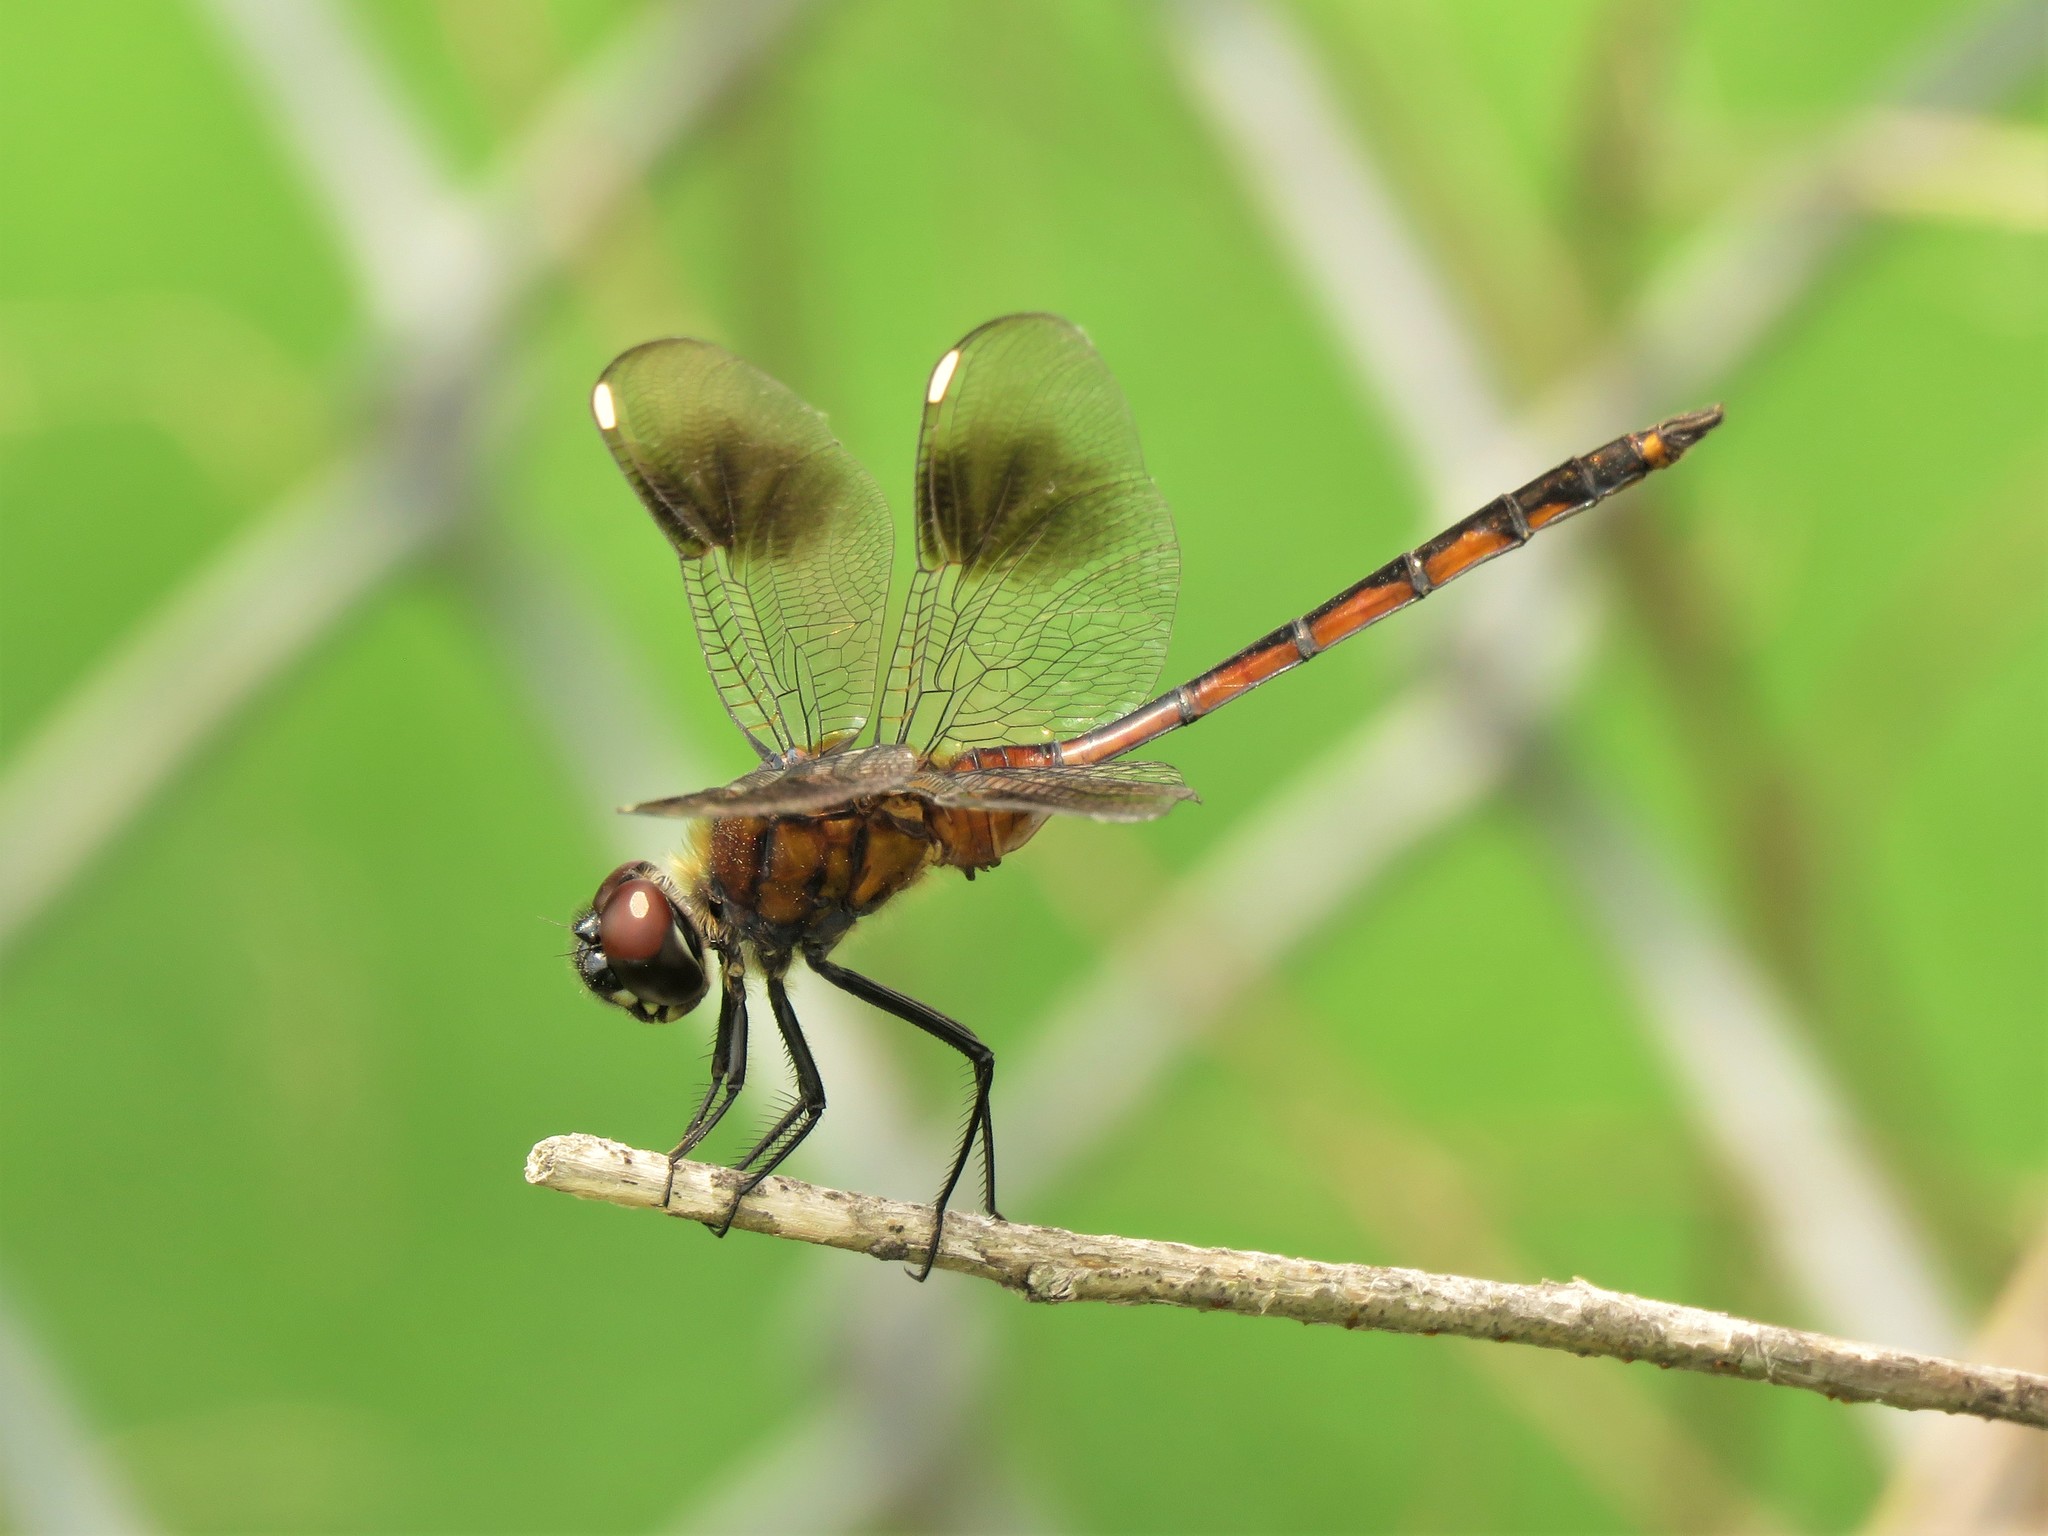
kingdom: Animalia
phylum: Arthropoda
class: Insecta
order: Odonata
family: Libellulidae
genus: Brachymesia
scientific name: Brachymesia gravida
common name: Four-spotted pennant
